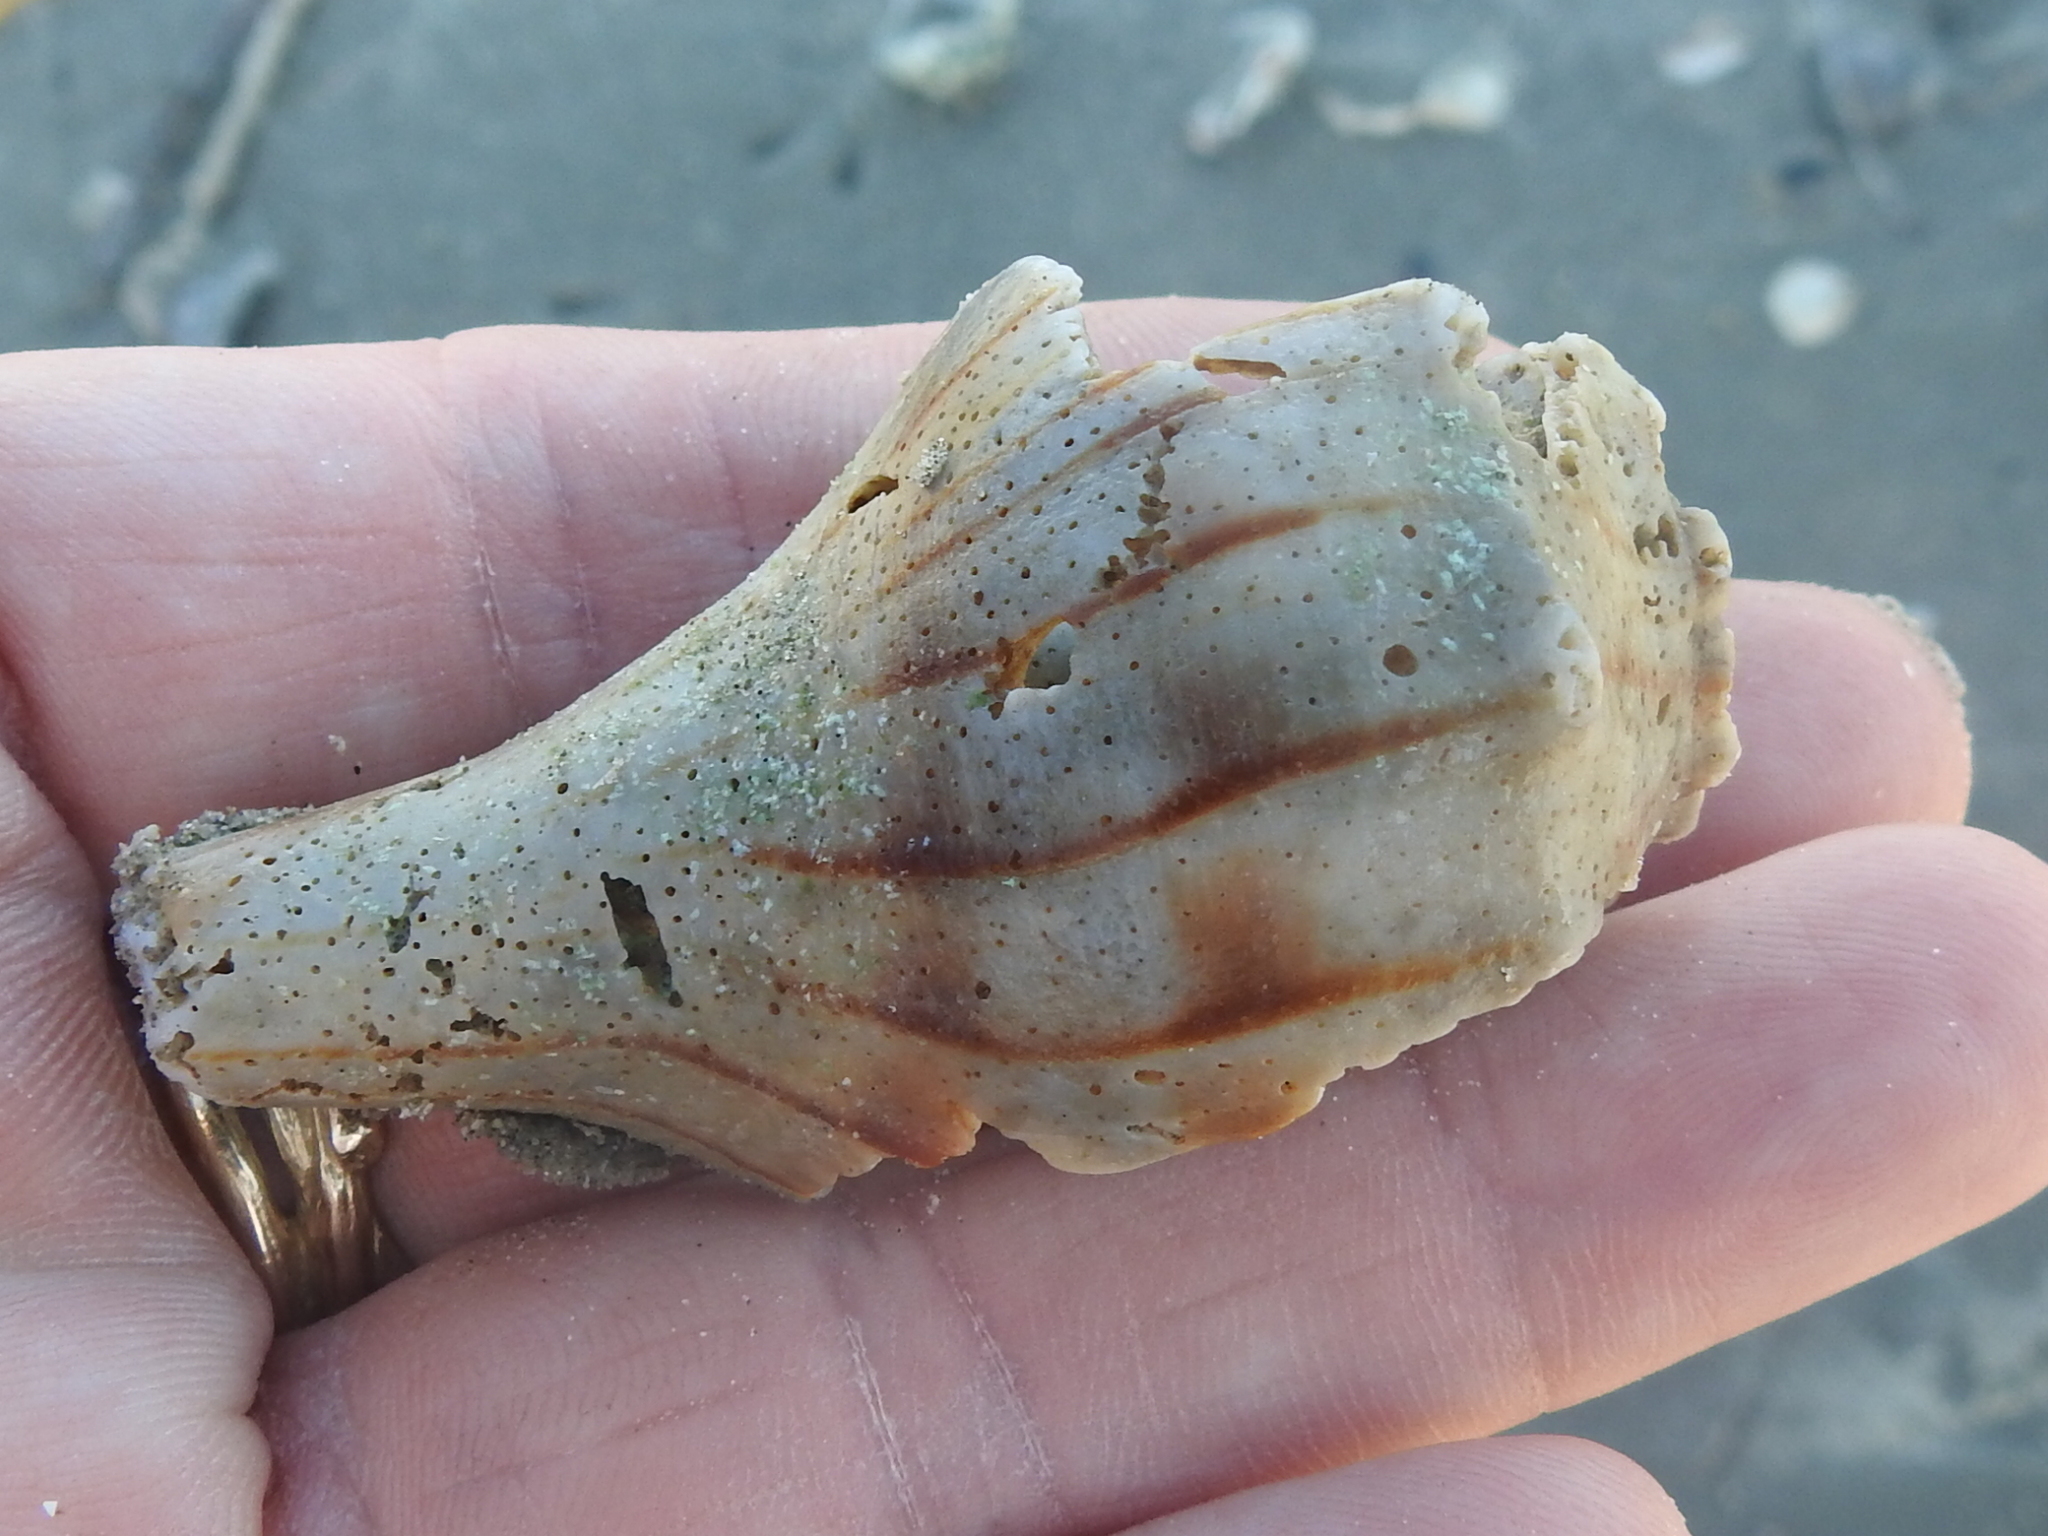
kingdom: Animalia
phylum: Mollusca
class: Gastropoda
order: Neogastropoda
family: Busyconidae
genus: Sinistrofulgur
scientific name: Sinistrofulgur pulleyi
